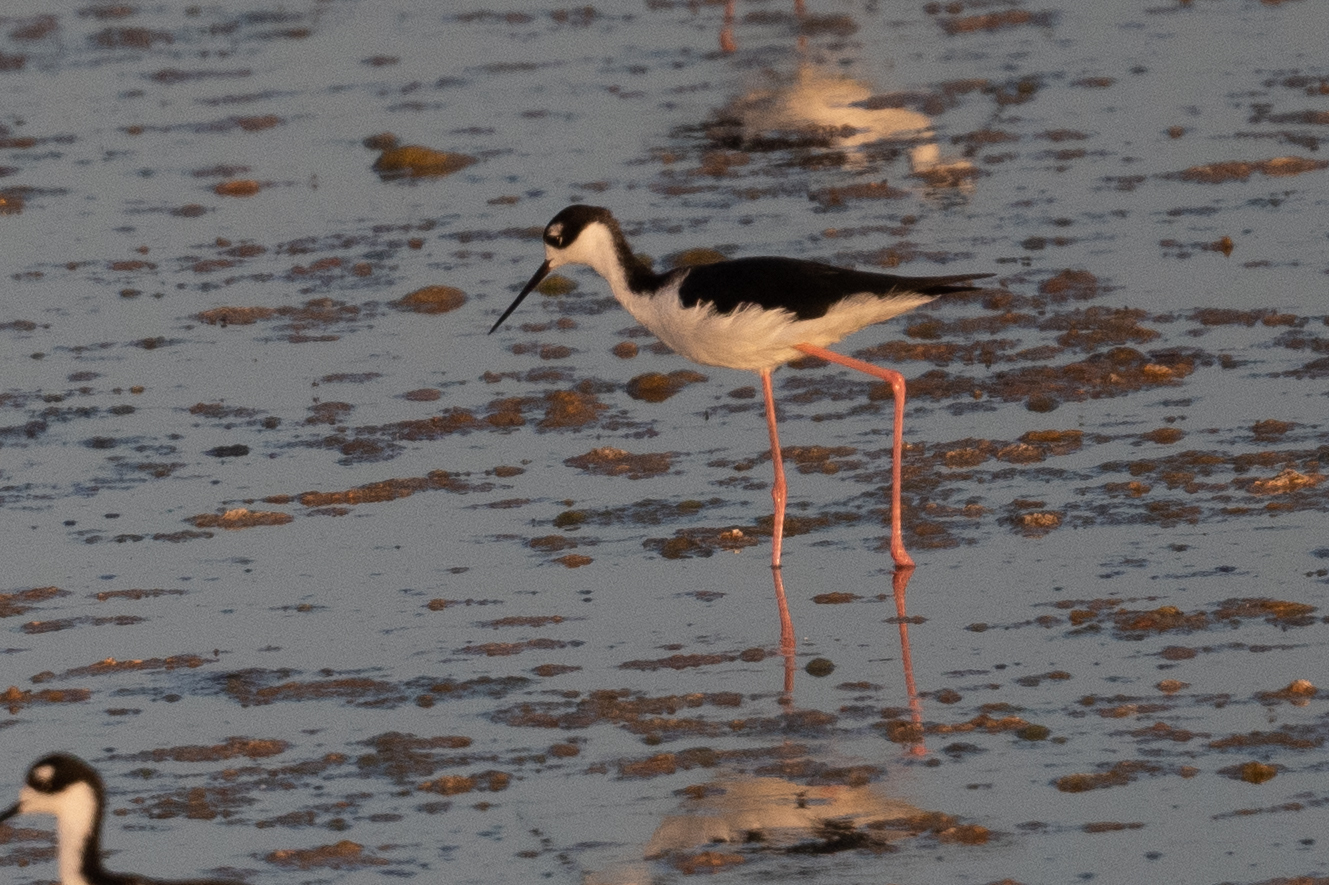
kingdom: Animalia
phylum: Chordata
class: Aves
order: Charadriiformes
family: Recurvirostridae
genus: Himantopus
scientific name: Himantopus mexicanus
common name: Black-necked stilt
